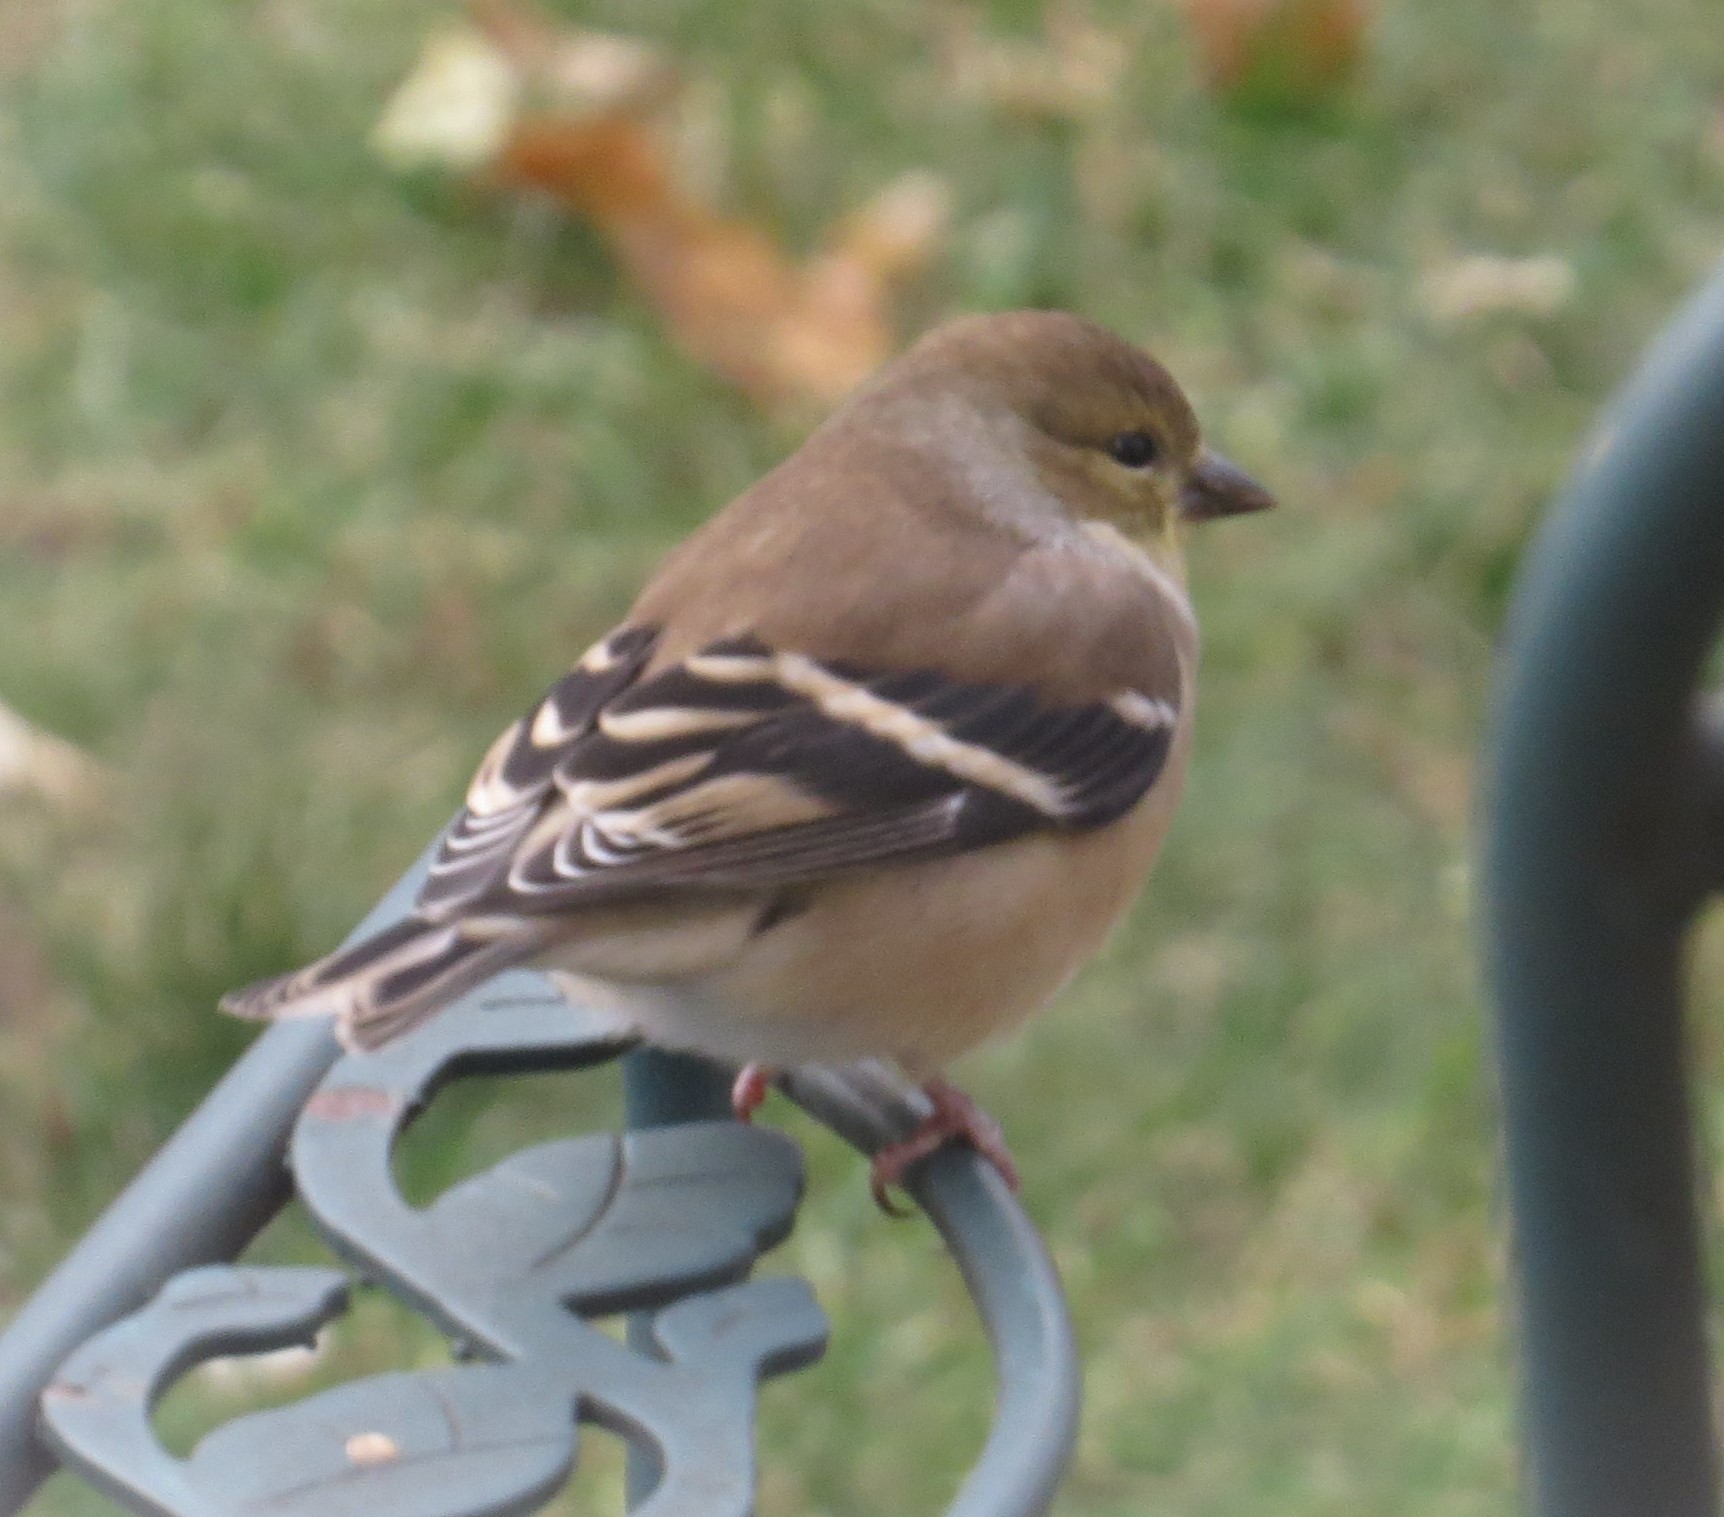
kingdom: Animalia
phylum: Chordata
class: Aves
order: Passeriformes
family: Fringillidae
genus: Spinus
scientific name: Spinus tristis
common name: American goldfinch
